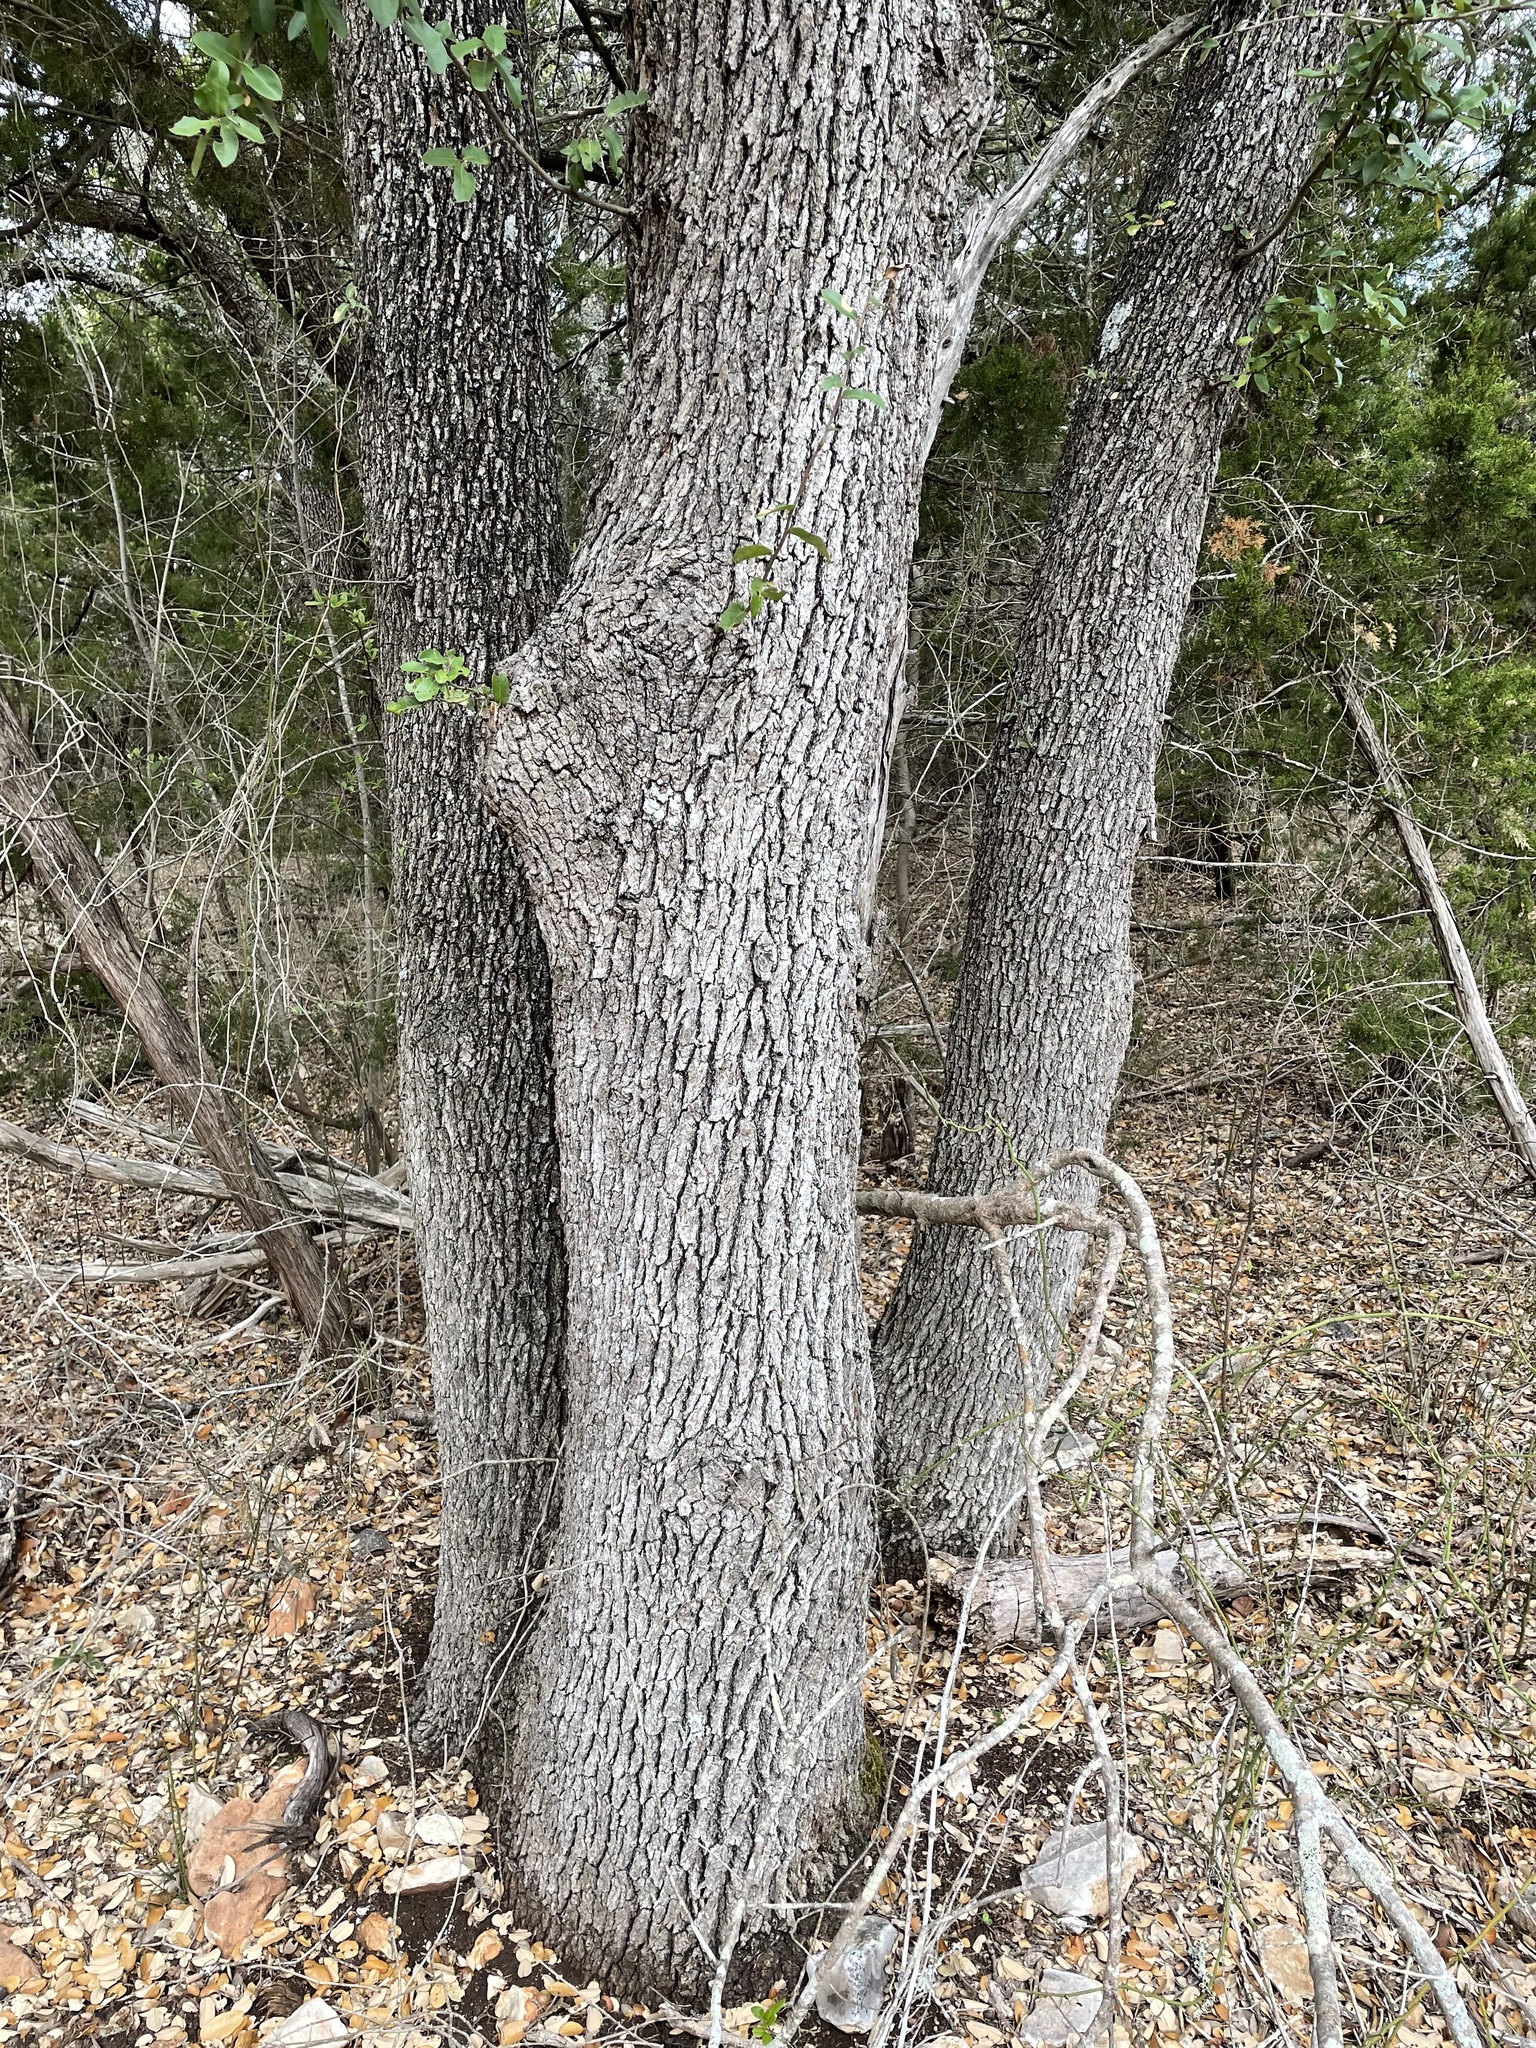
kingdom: Plantae
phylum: Tracheophyta
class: Magnoliopsida
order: Fagales
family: Fagaceae
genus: Quercus
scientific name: Quercus fusiformis
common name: Texas live oak
